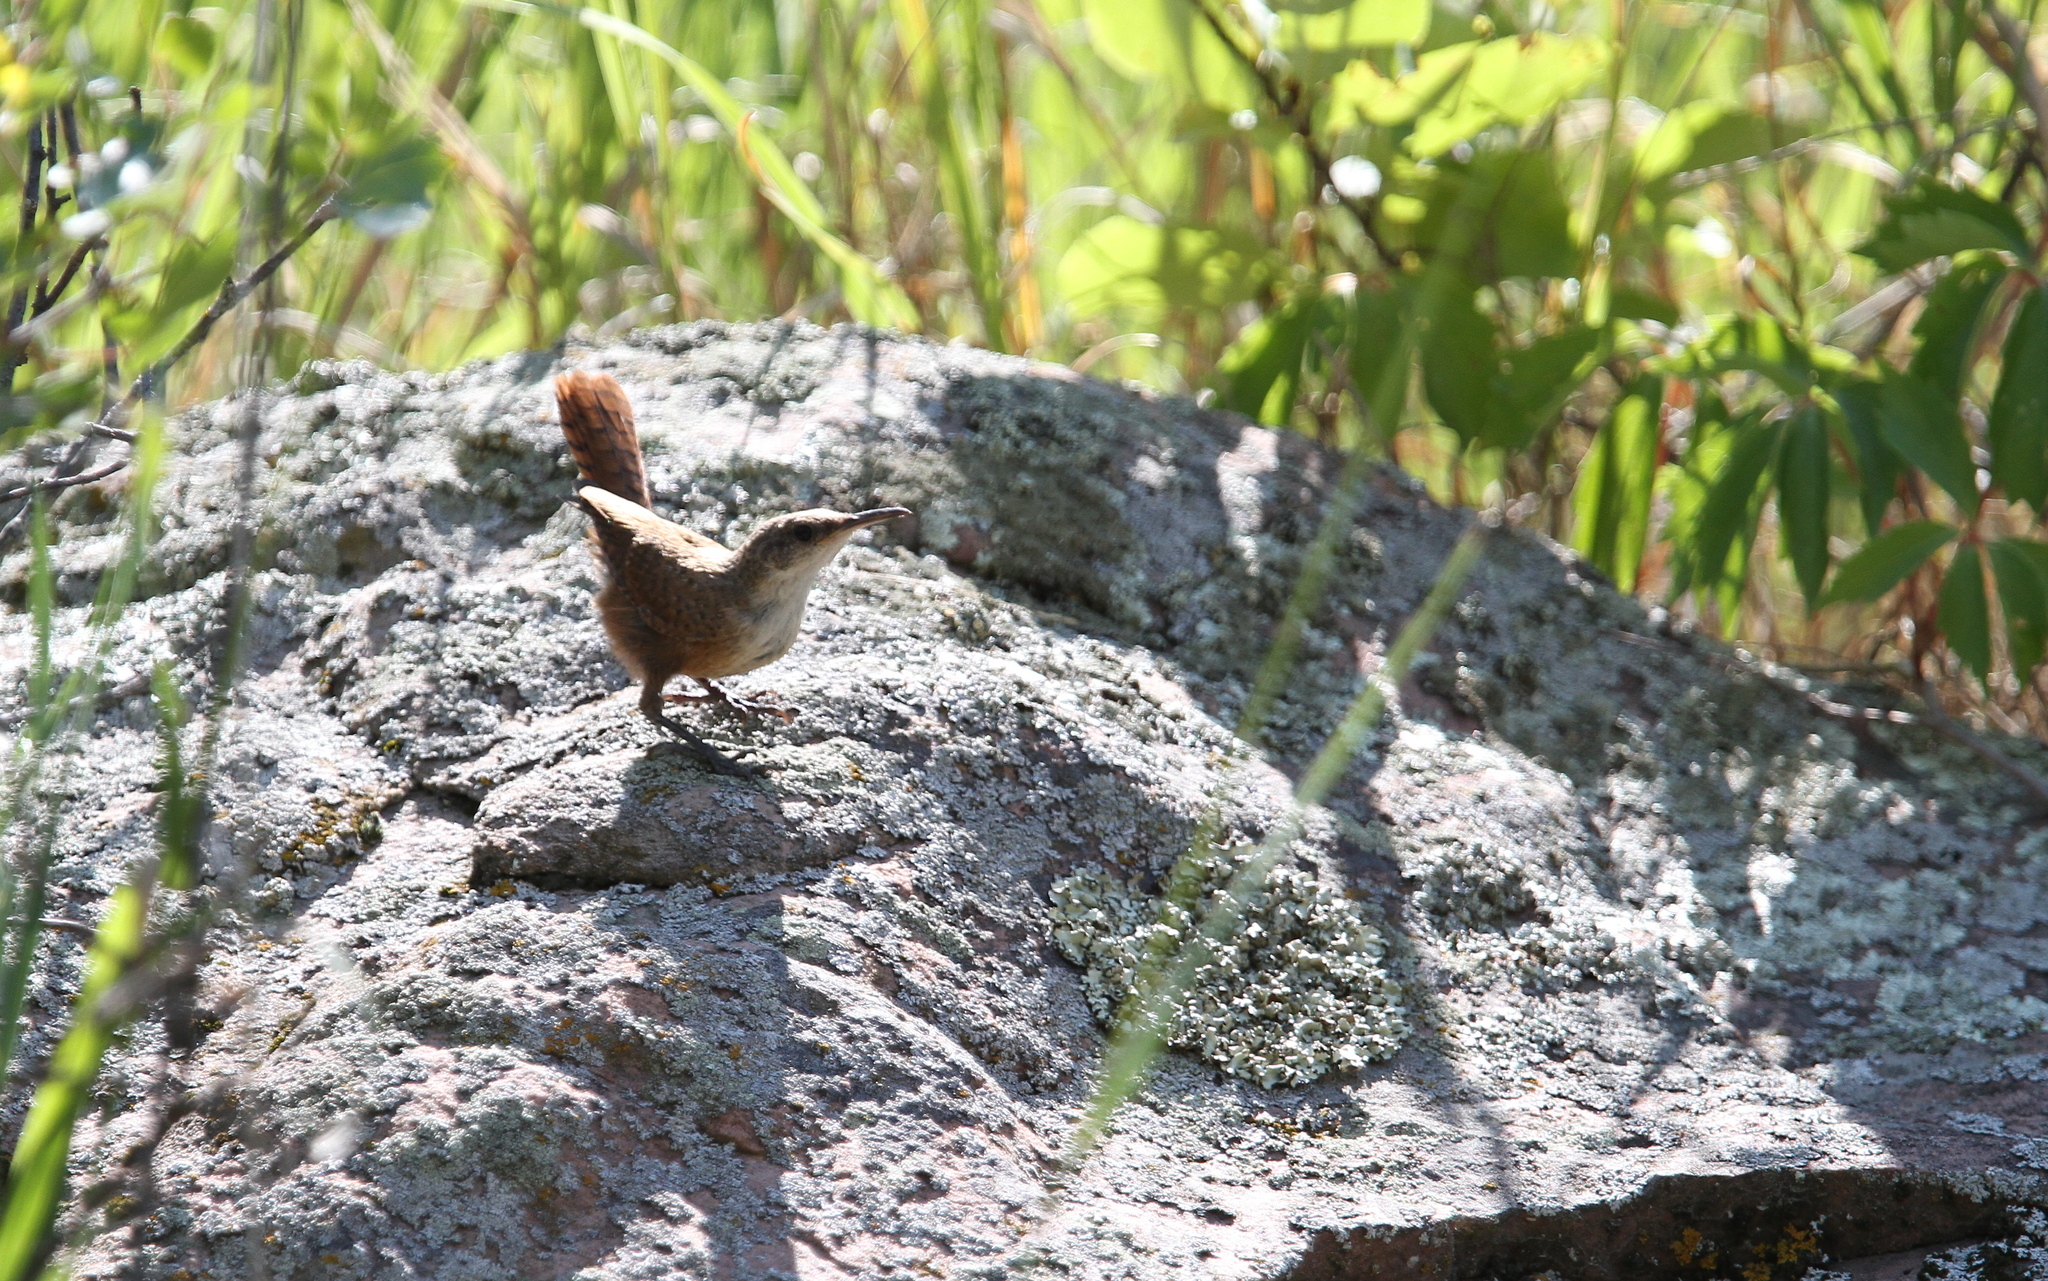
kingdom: Animalia
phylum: Chordata
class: Aves
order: Passeriformes
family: Troglodytidae
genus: Catherpes
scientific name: Catherpes mexicanus
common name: Canyon wren
